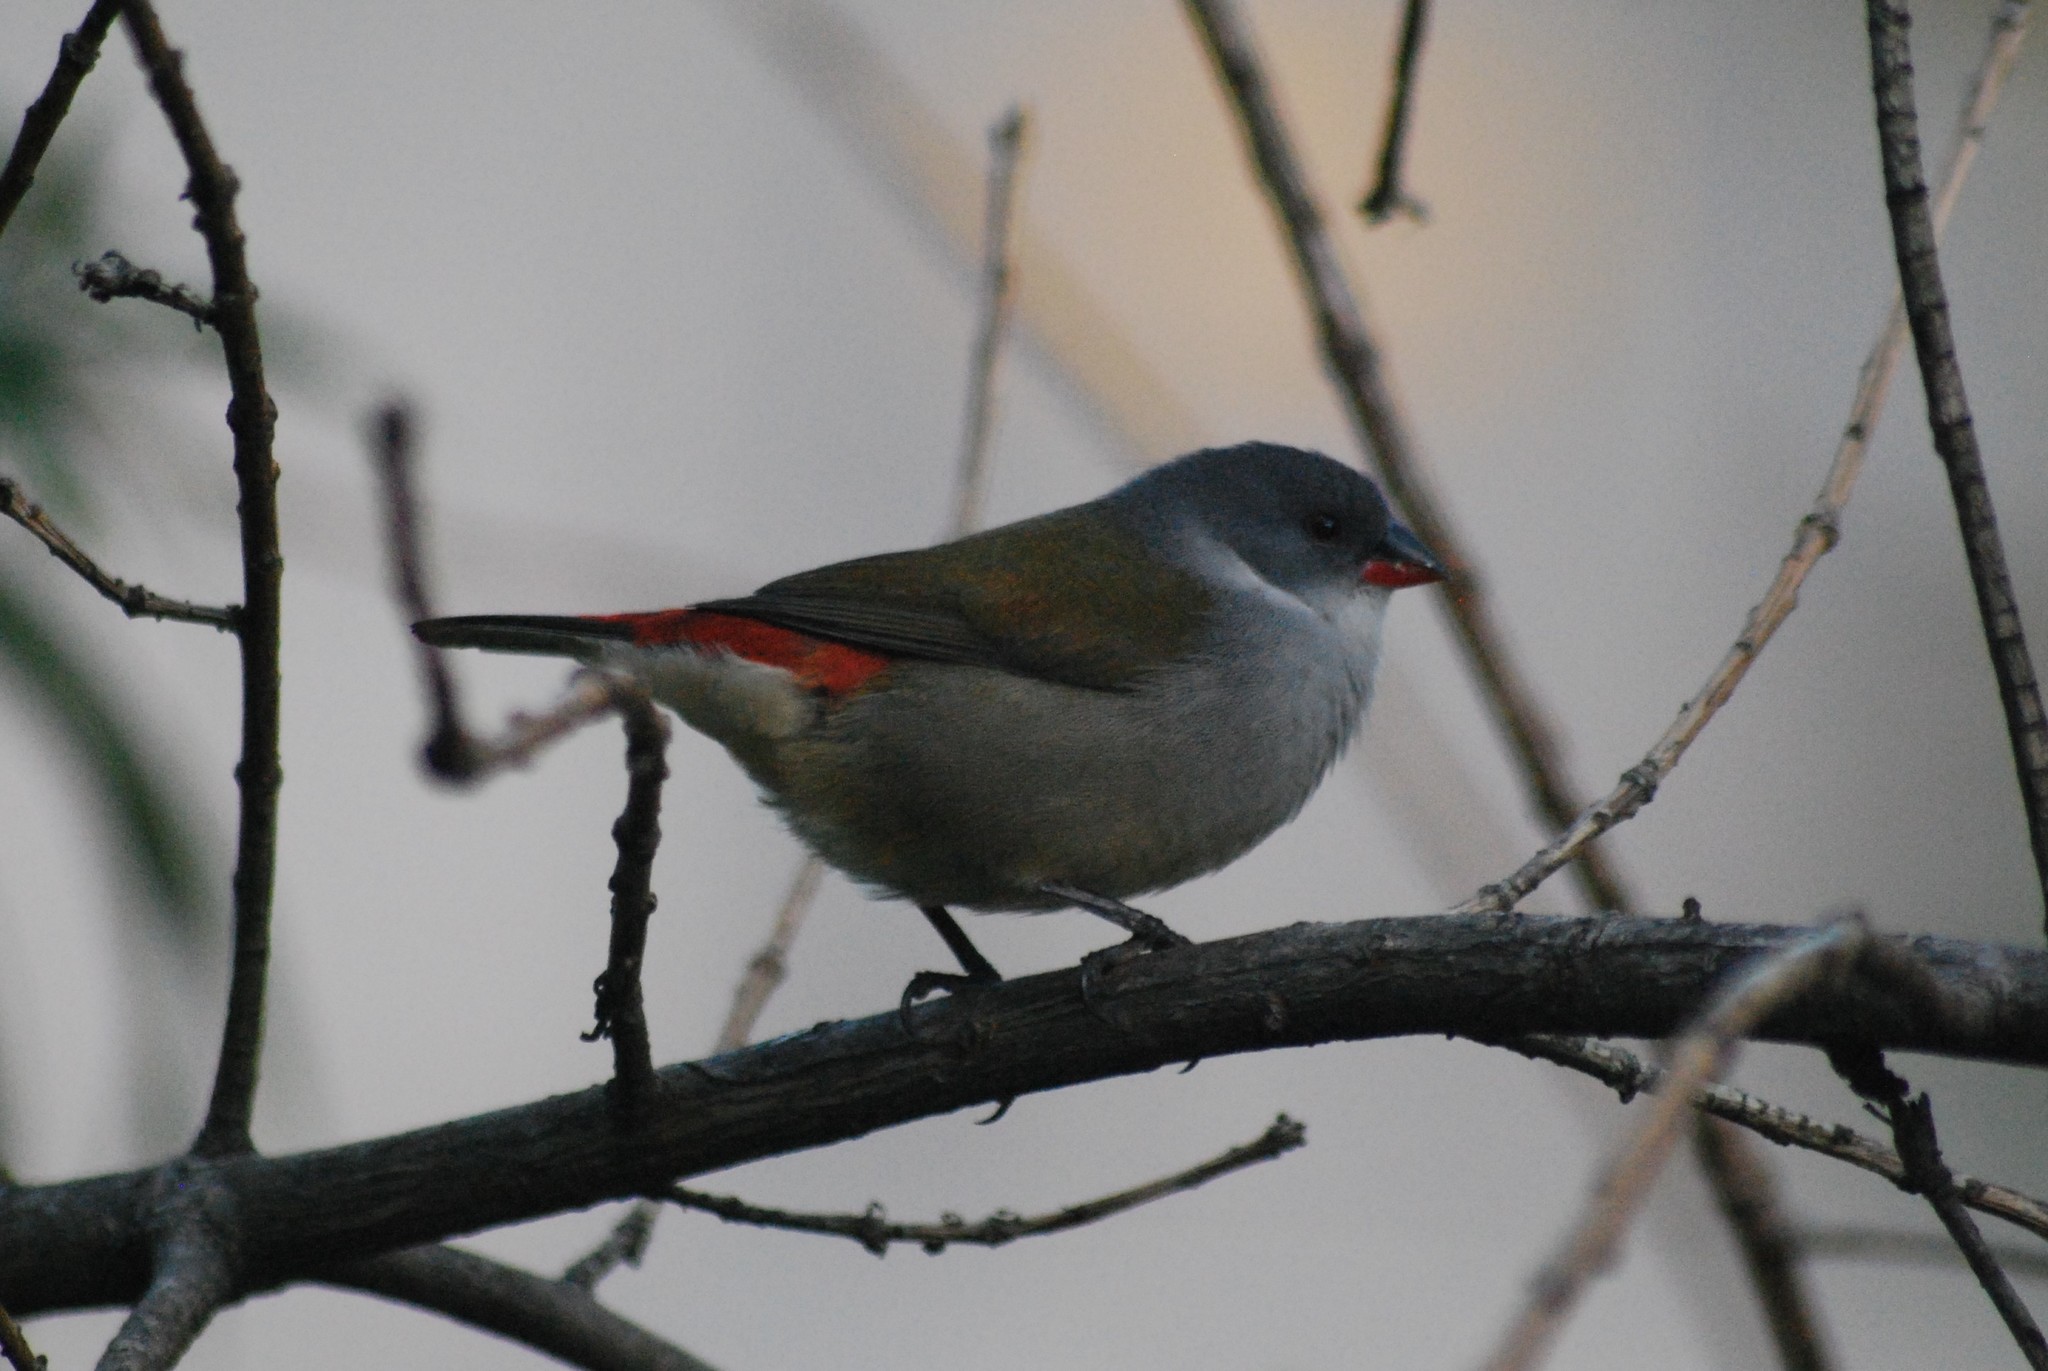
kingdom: Animalia
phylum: Chordata
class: Aves
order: Passeriformes
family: Estrildidae
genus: Coccopygia
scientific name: Coccopygia melanotis
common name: Swee waxbill
